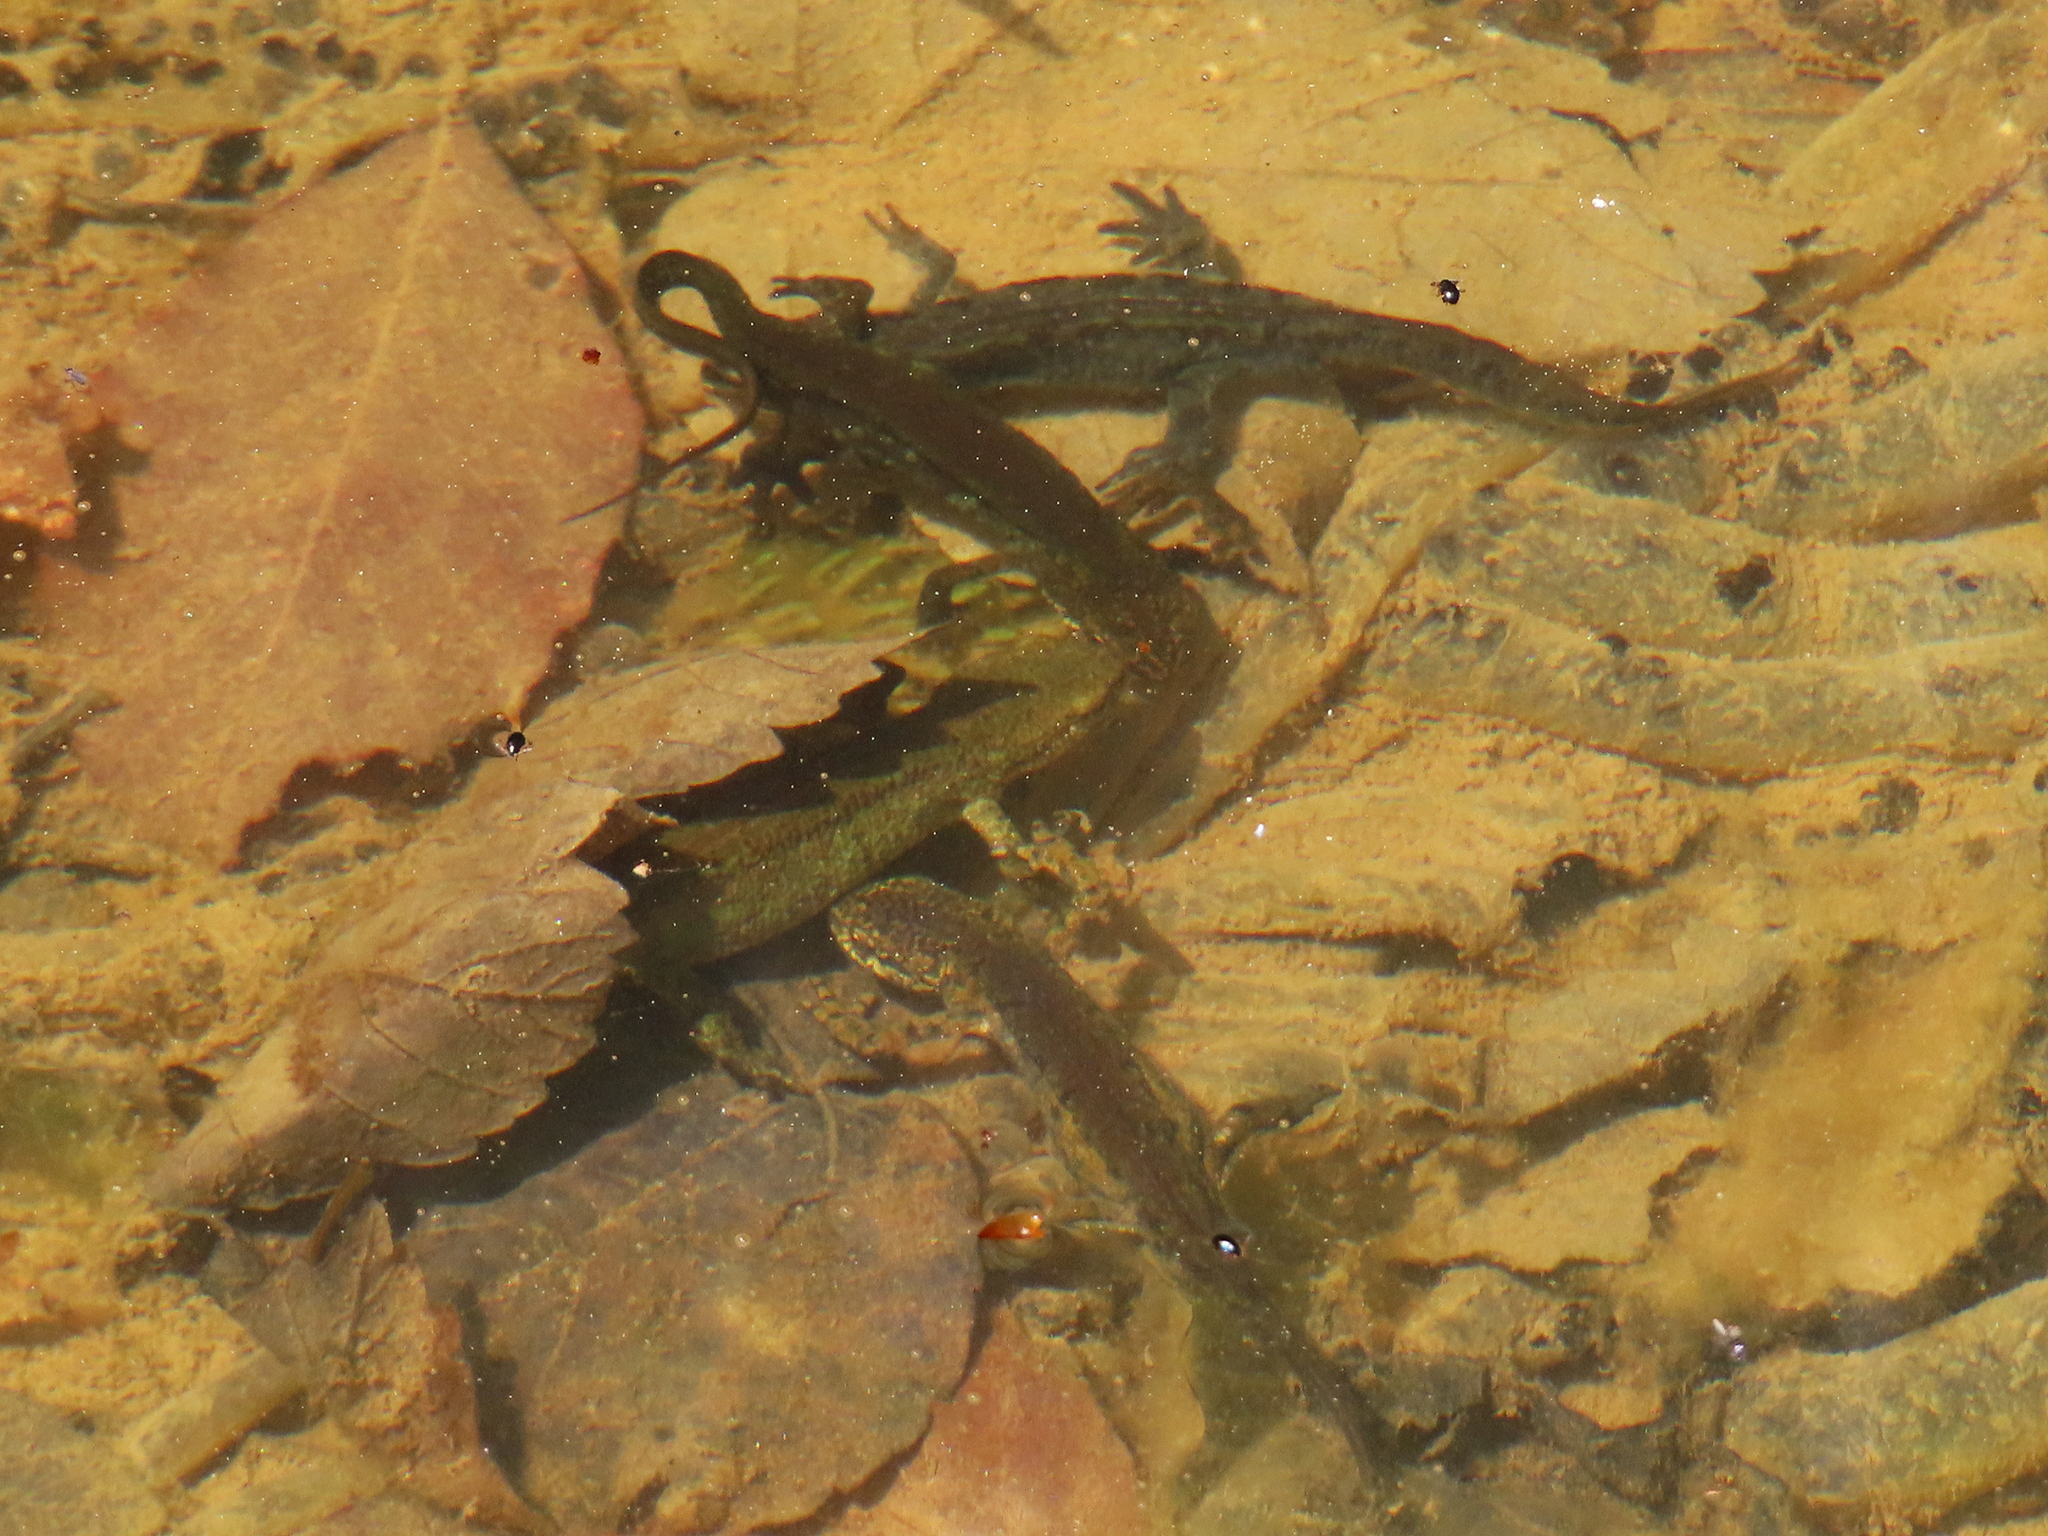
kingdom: Animalia
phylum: Chordata
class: Amphibia
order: Caudata
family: Salamandridae
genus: Lissotriton
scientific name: Lissotriton montandoni
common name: Carpathian newt
